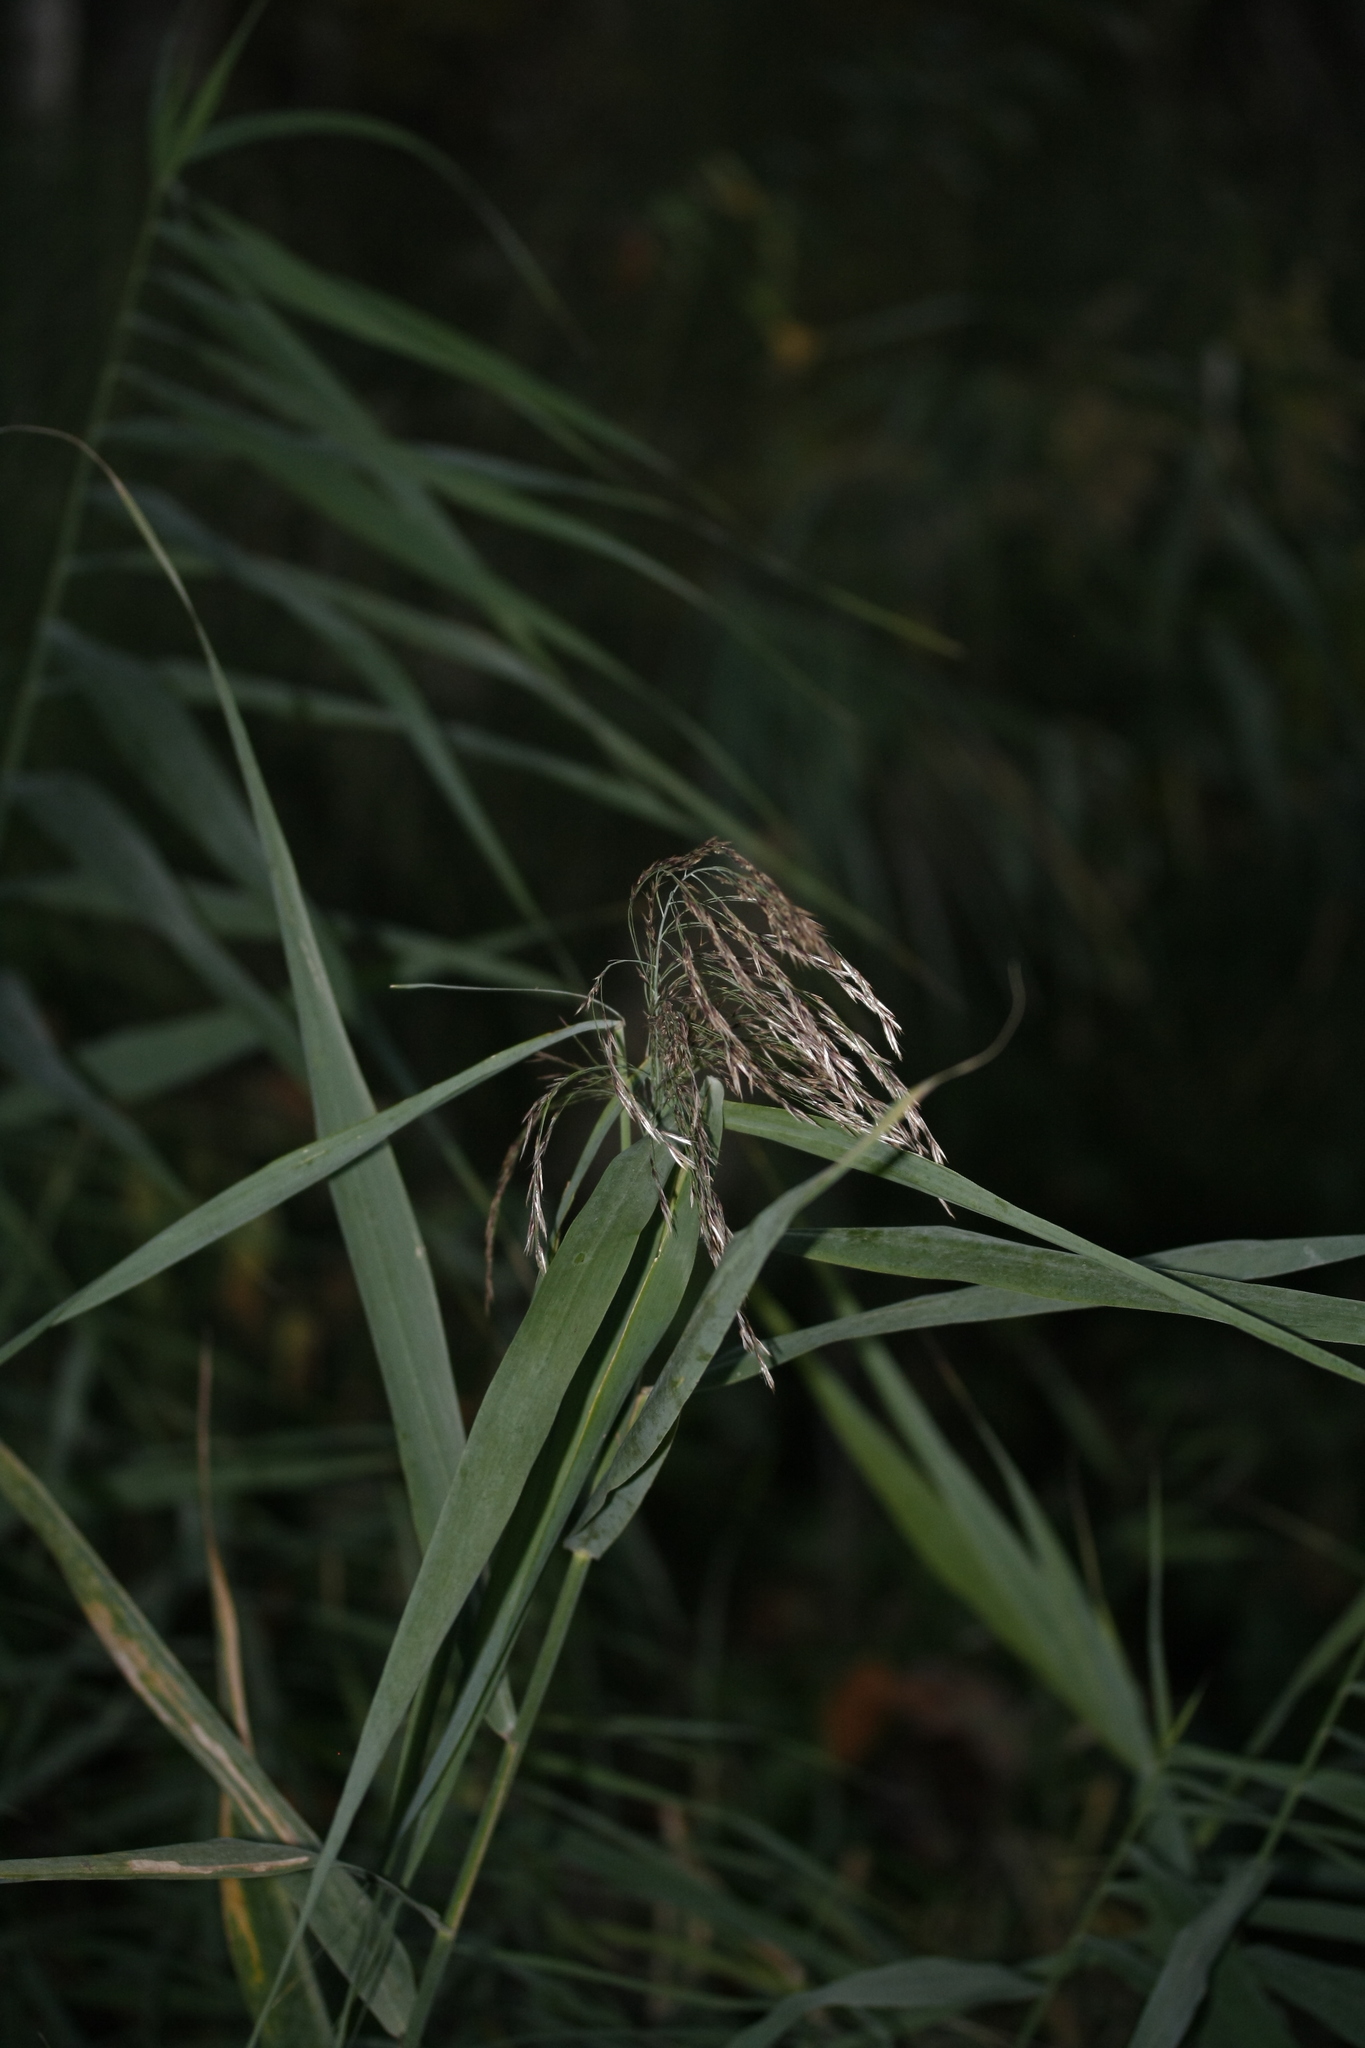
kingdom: Plantae
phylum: Tracheophyta
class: Liliopsida
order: Poales
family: Poaceae
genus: Phragmites
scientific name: Phragmites australis
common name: Common reed
